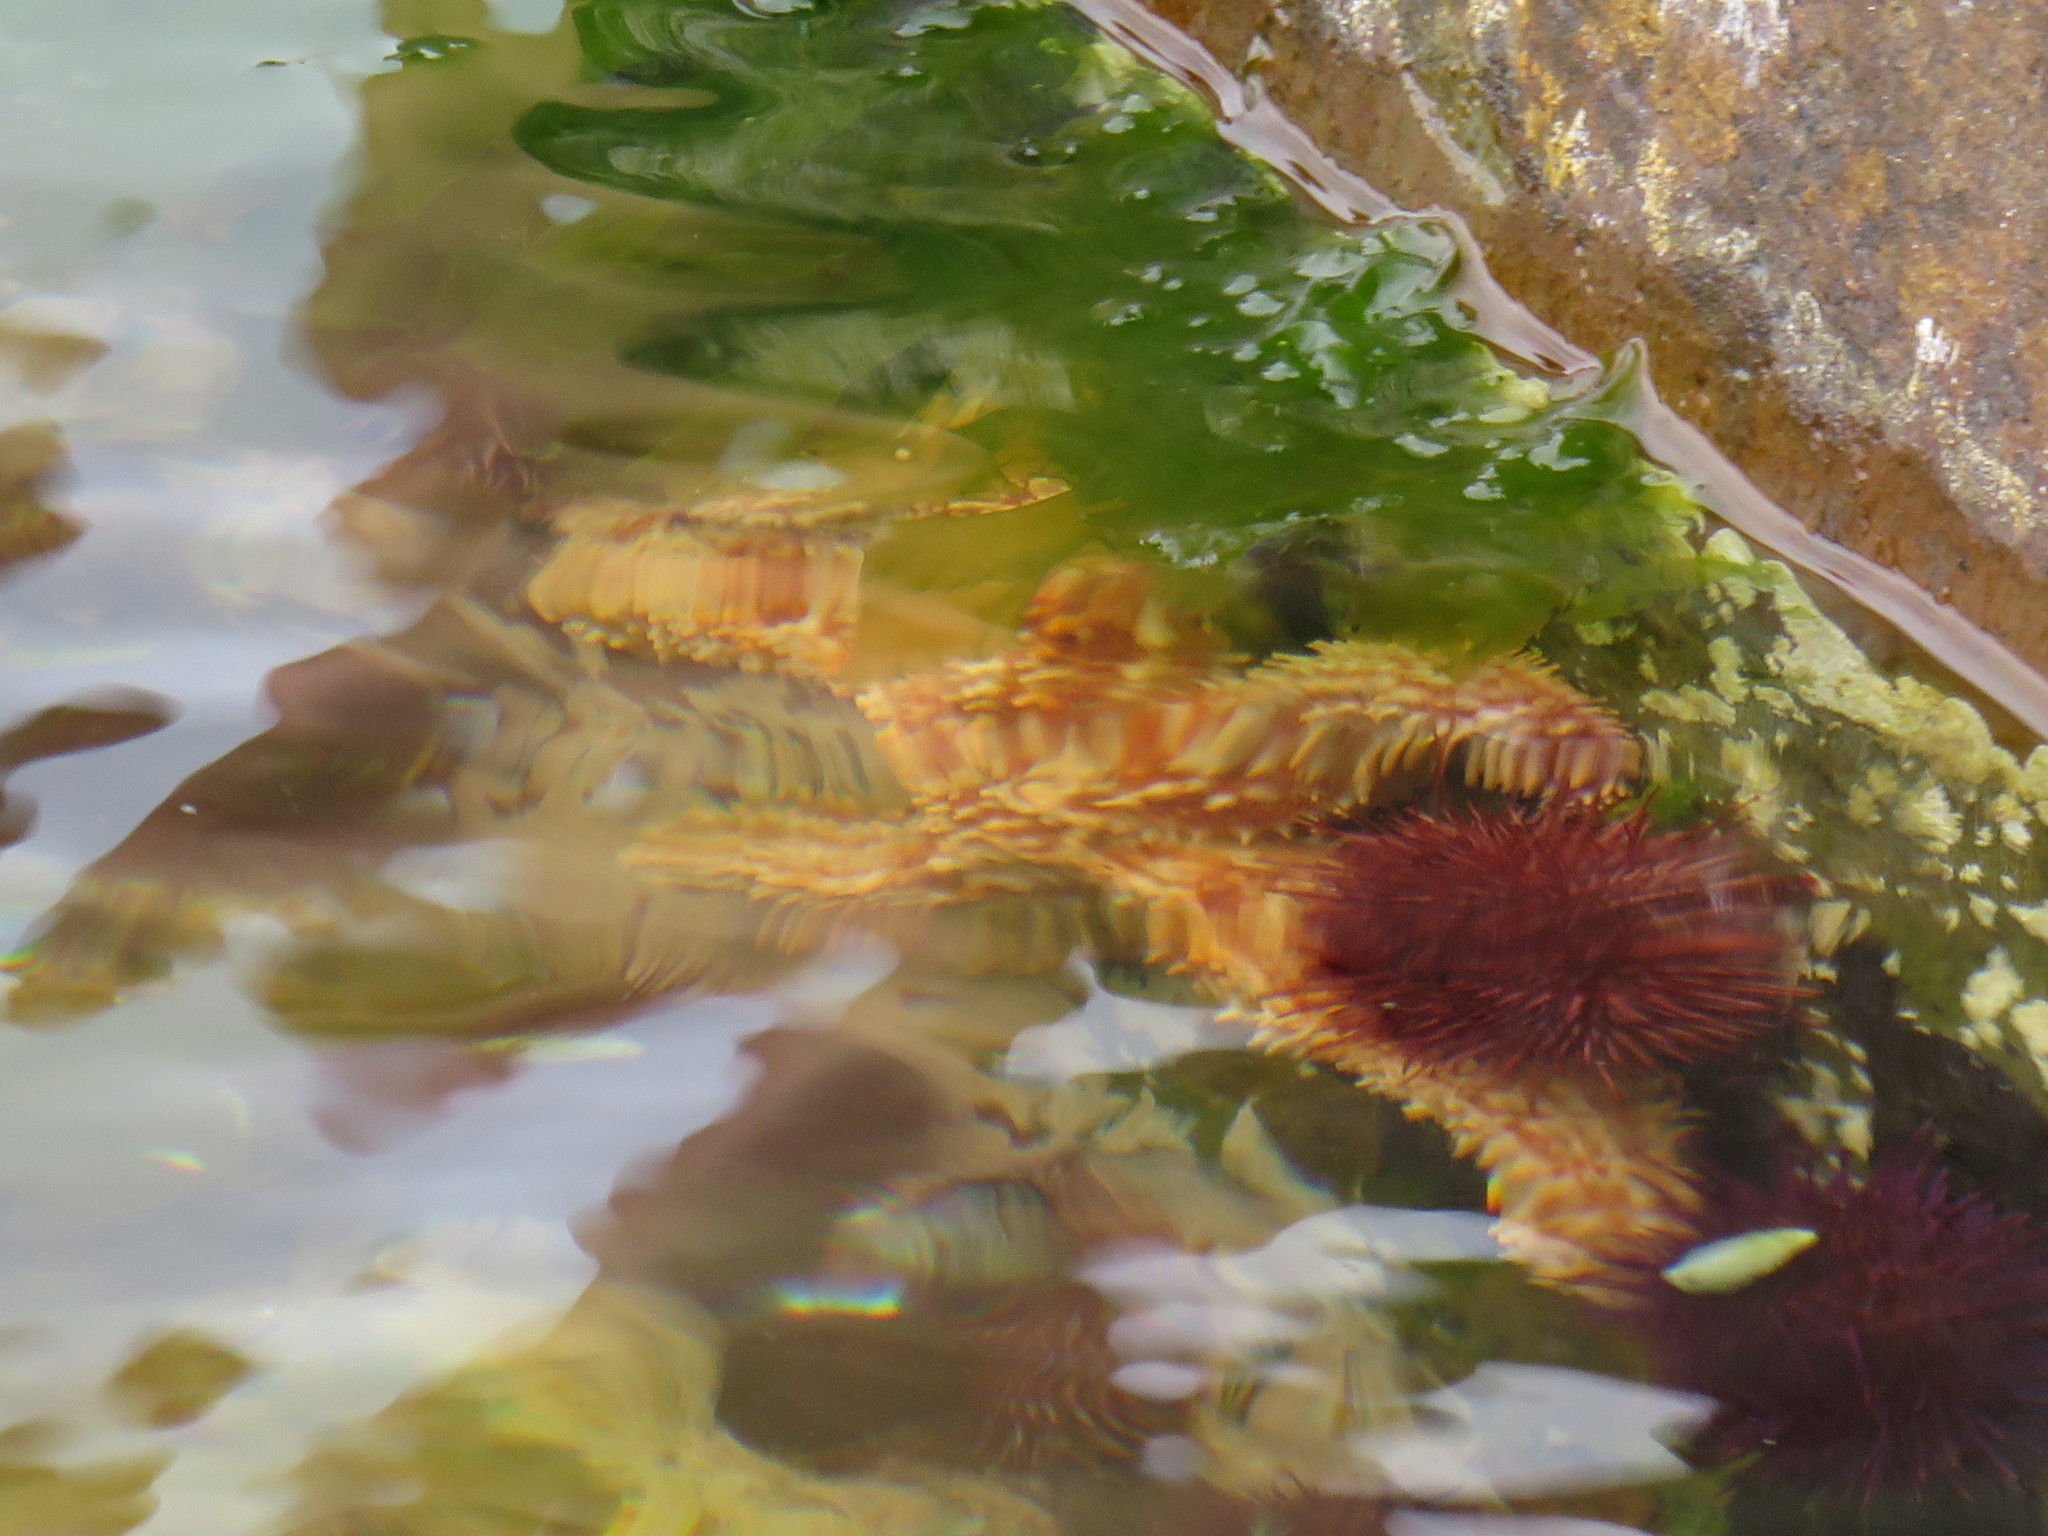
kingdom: Animalia
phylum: Echinodermata
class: Asteroidea
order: Forcipulatida
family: Asteriidae
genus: Marthasterias
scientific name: Marthasterias africana
